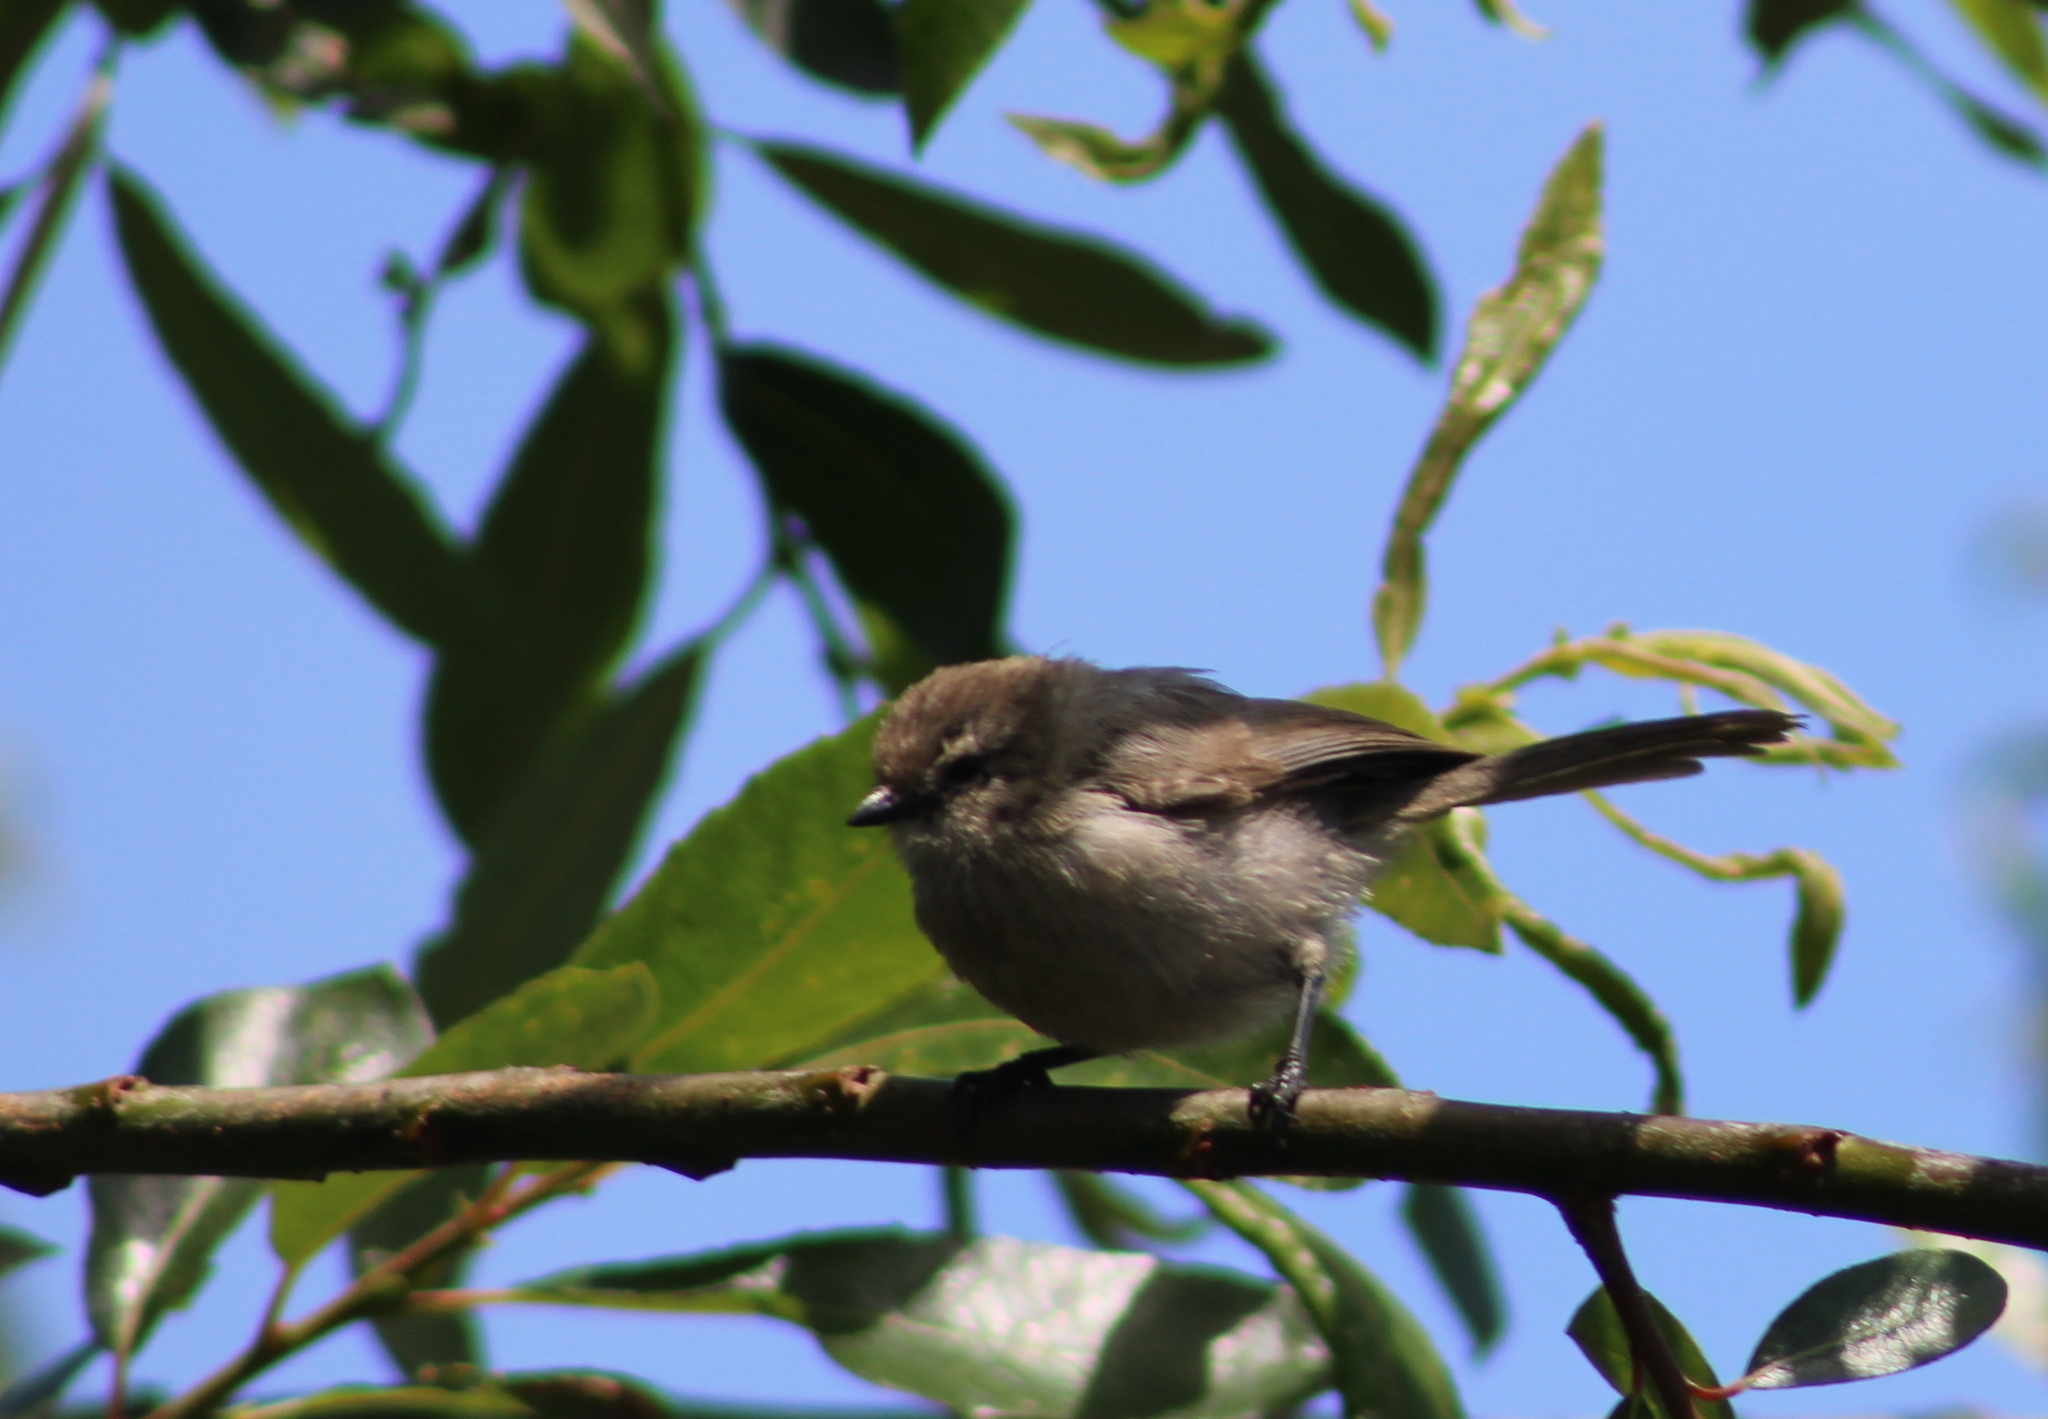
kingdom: Animalia
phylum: Chordata
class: Aves
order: Passeriformes
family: Aegithalidae
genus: Psaltriparus
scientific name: Psaltriparus minimus
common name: American bushtit
